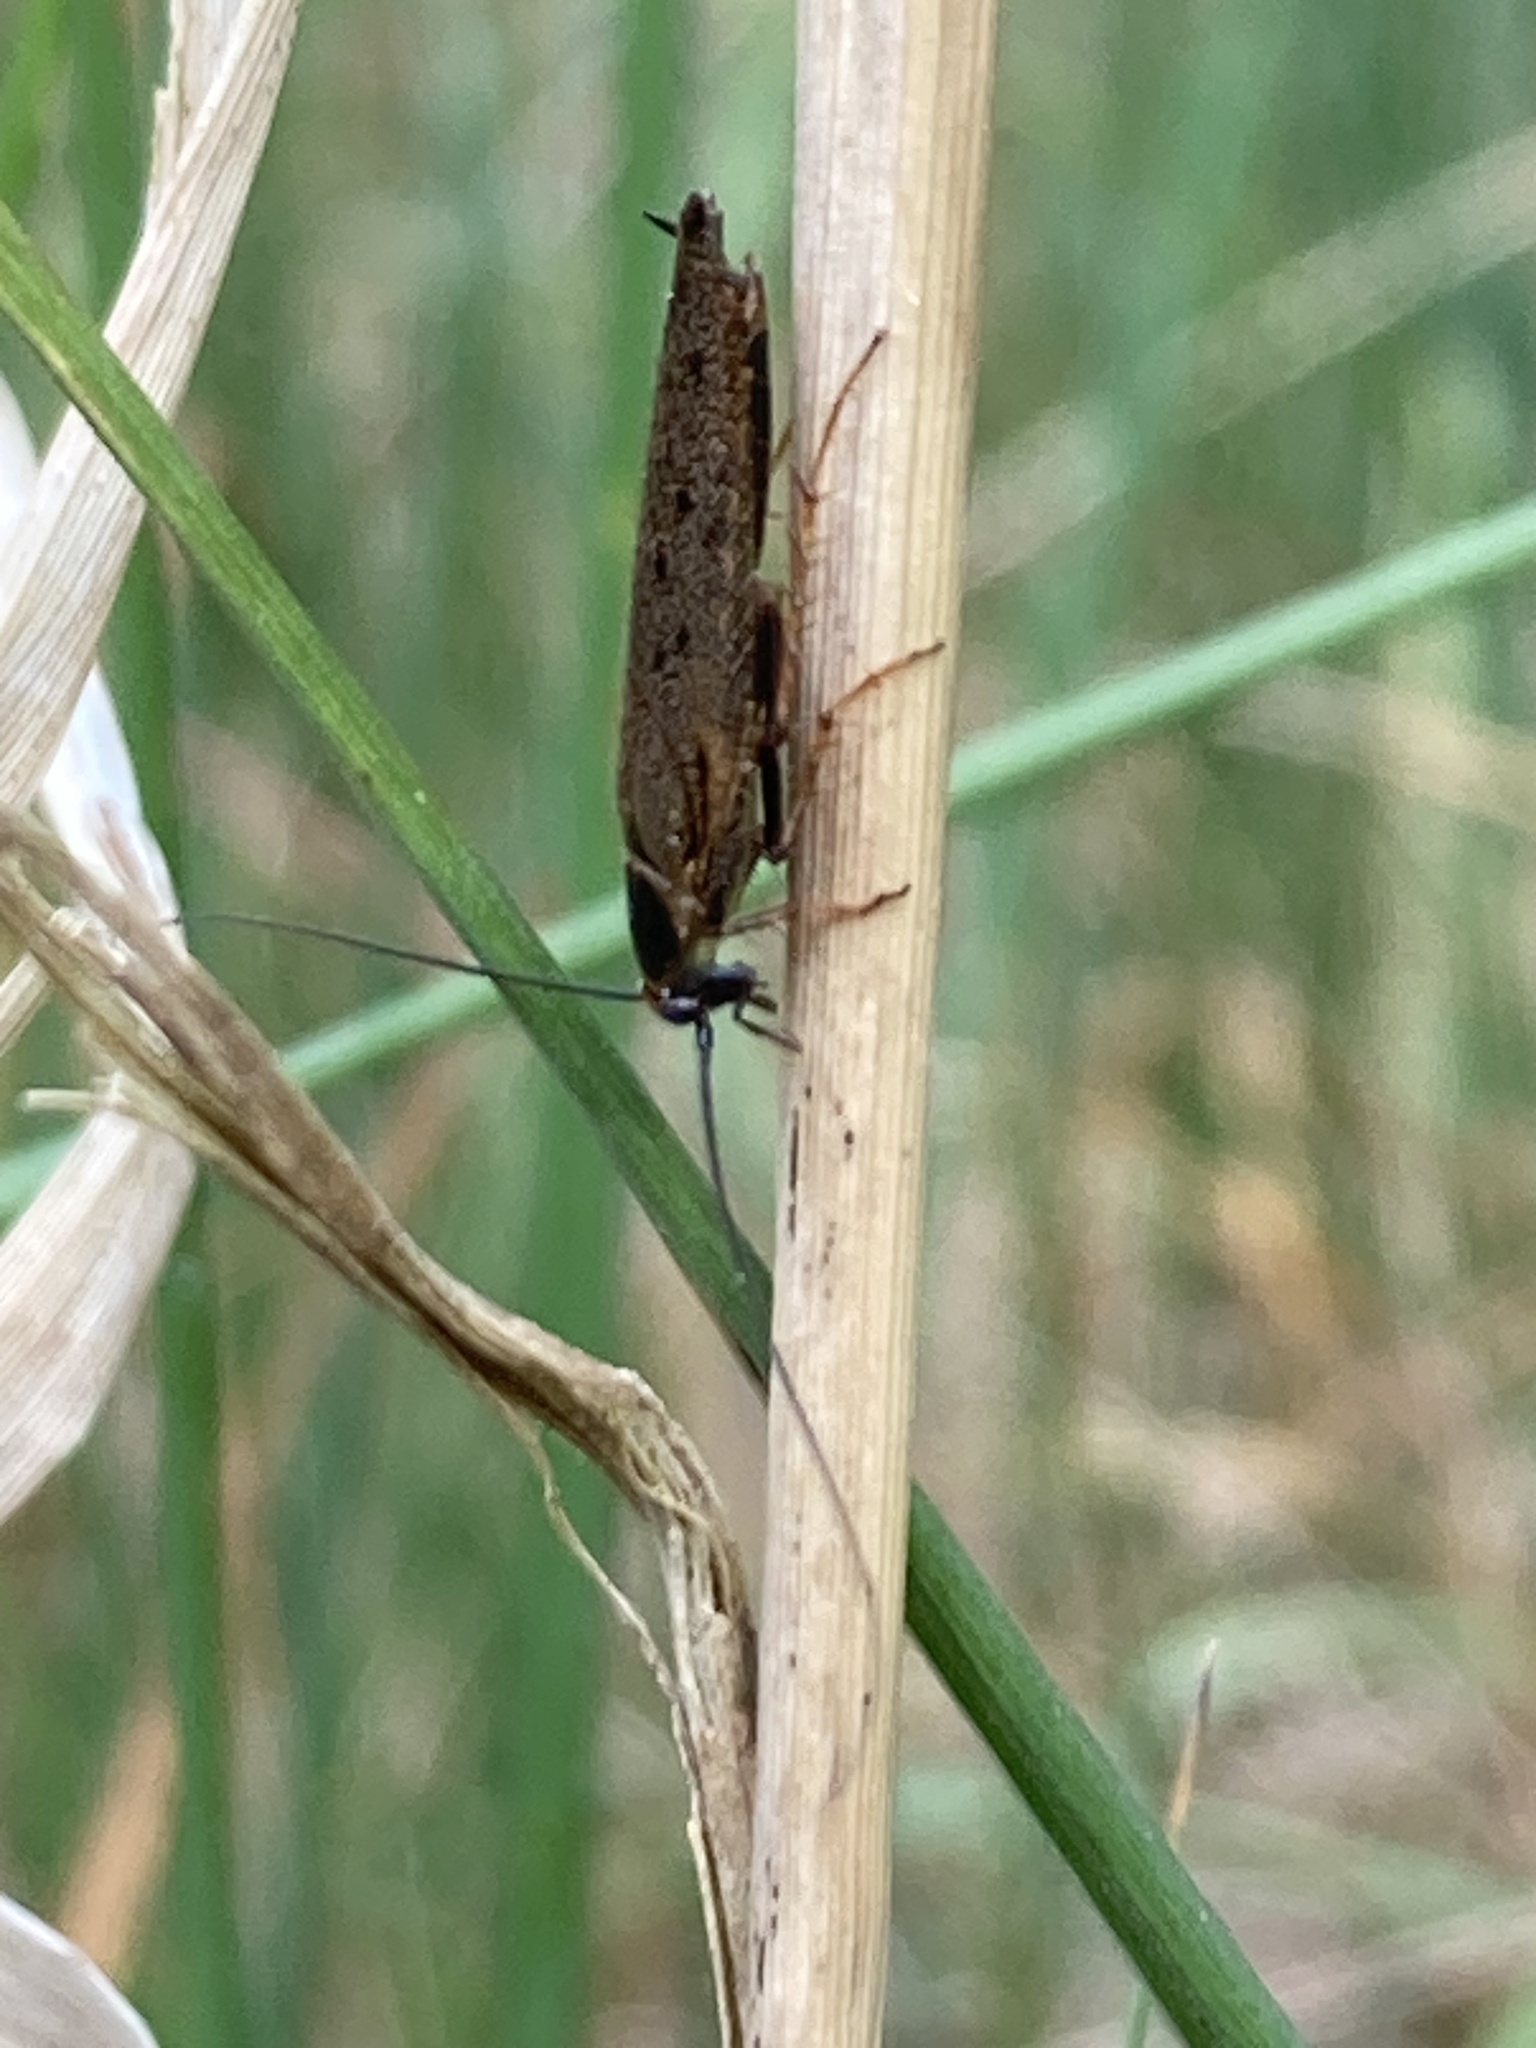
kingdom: Animalia
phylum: Arthropoda
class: Insecta
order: Blattodea
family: Ectobiidae
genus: Ectobius
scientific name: Ectobius lapponicus
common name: Dusky cockroach
